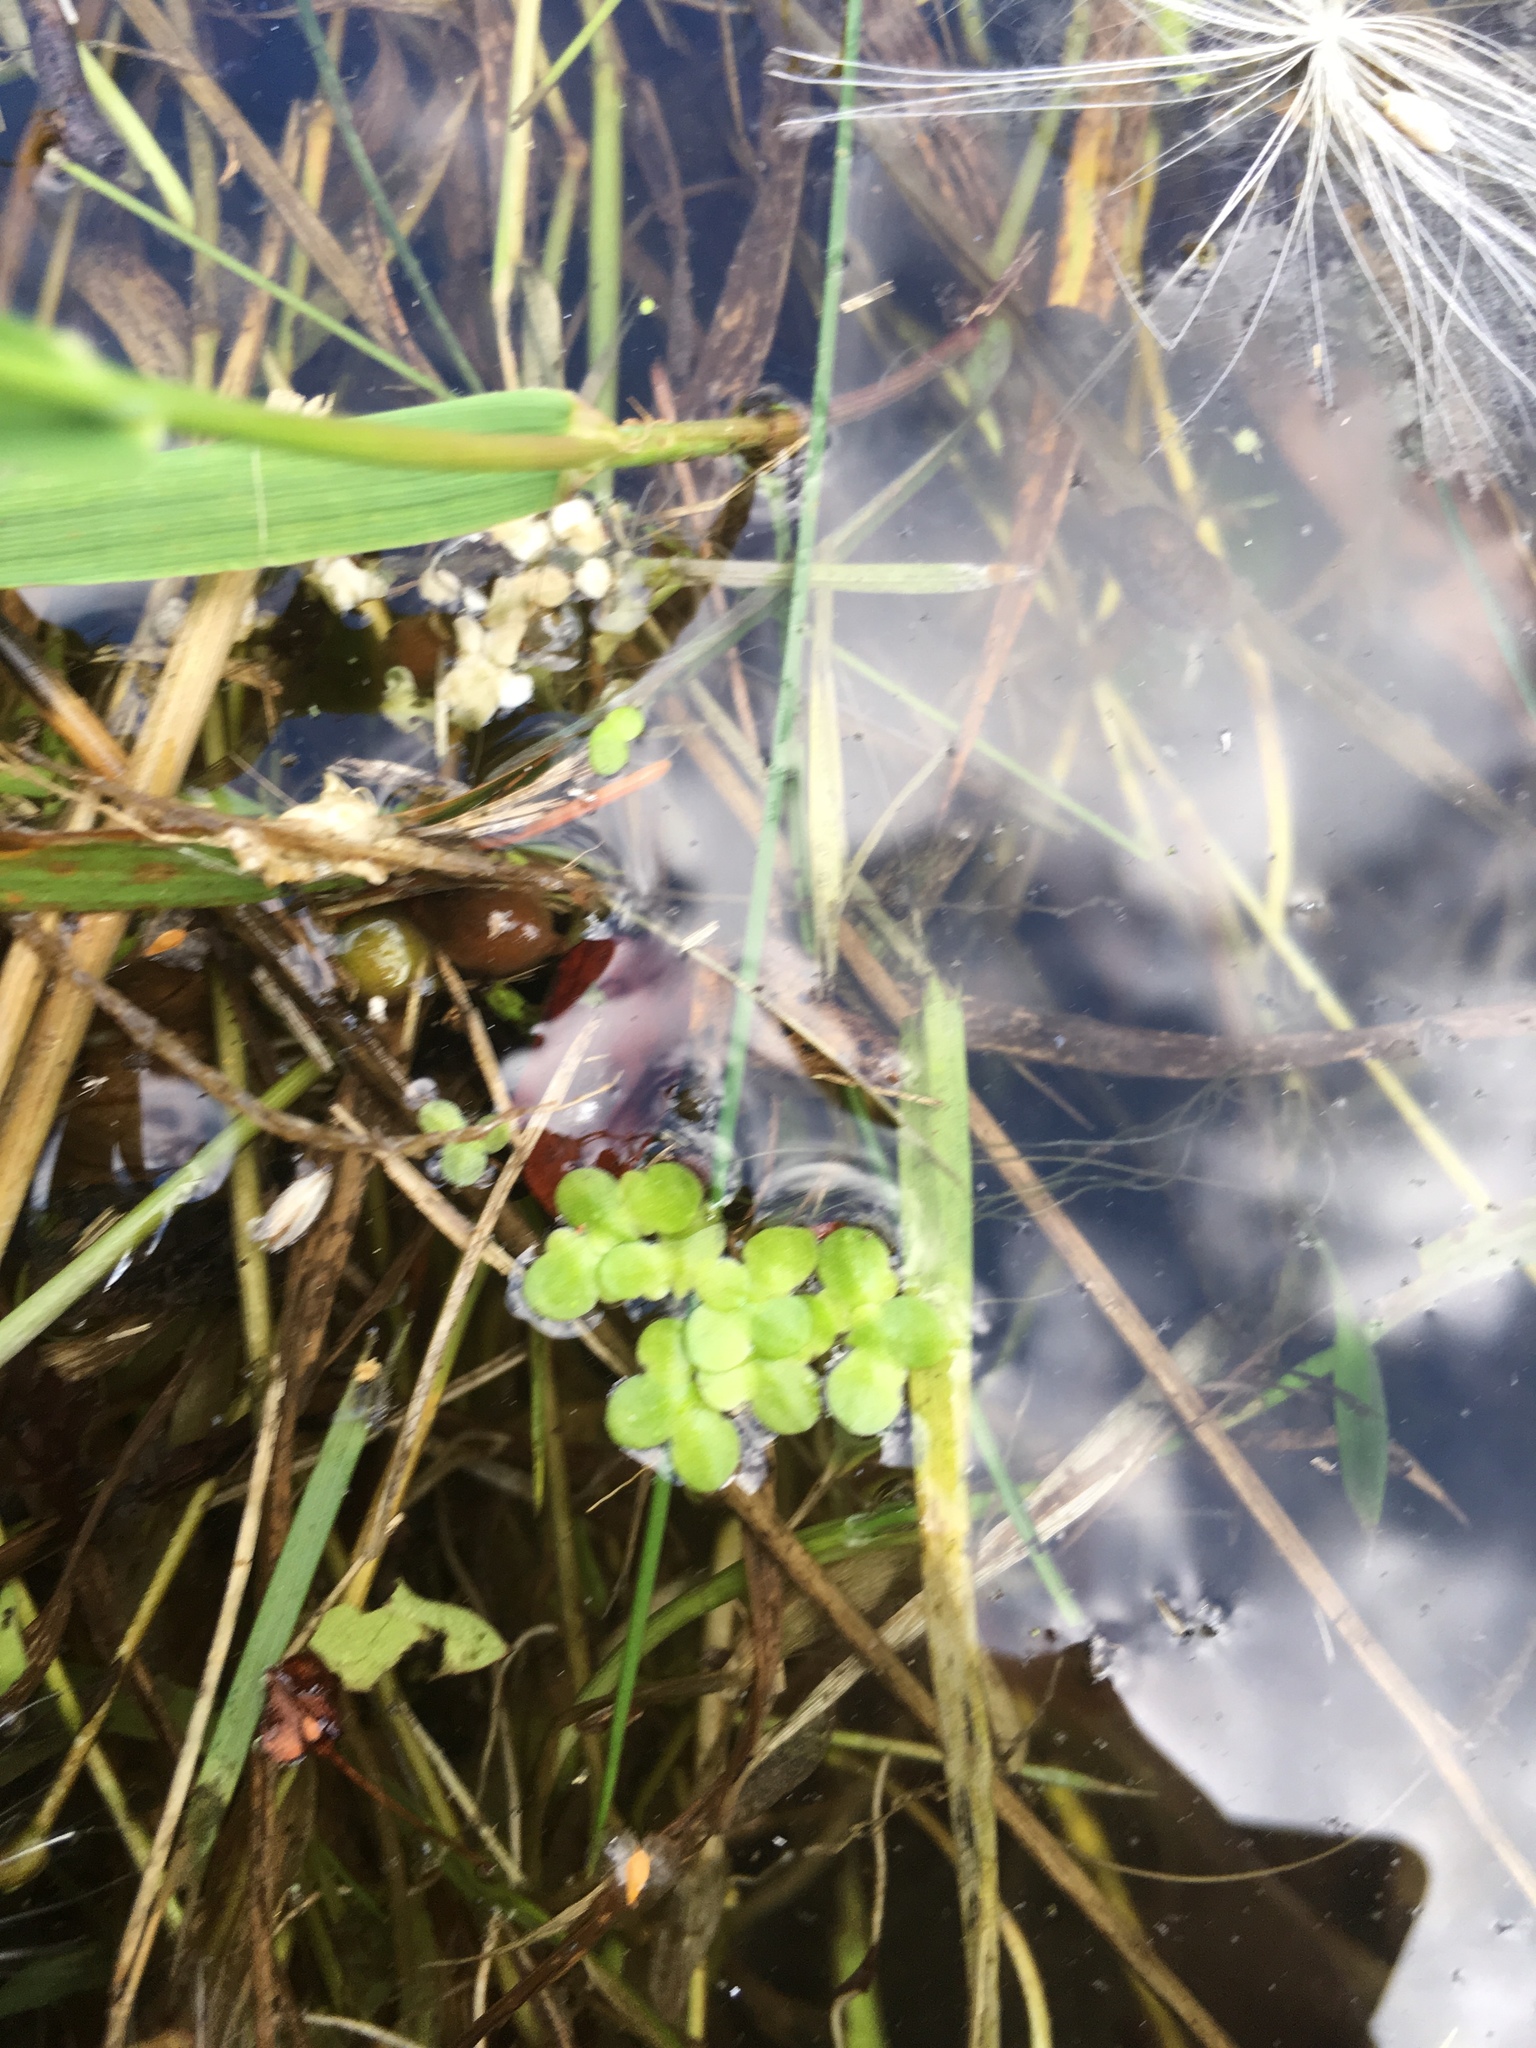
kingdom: Plantae
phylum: Tracheophyta
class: Liliopsida
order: Alismatales
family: Araceae
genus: Lemna
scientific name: Lemna minor
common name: Common duckweed
